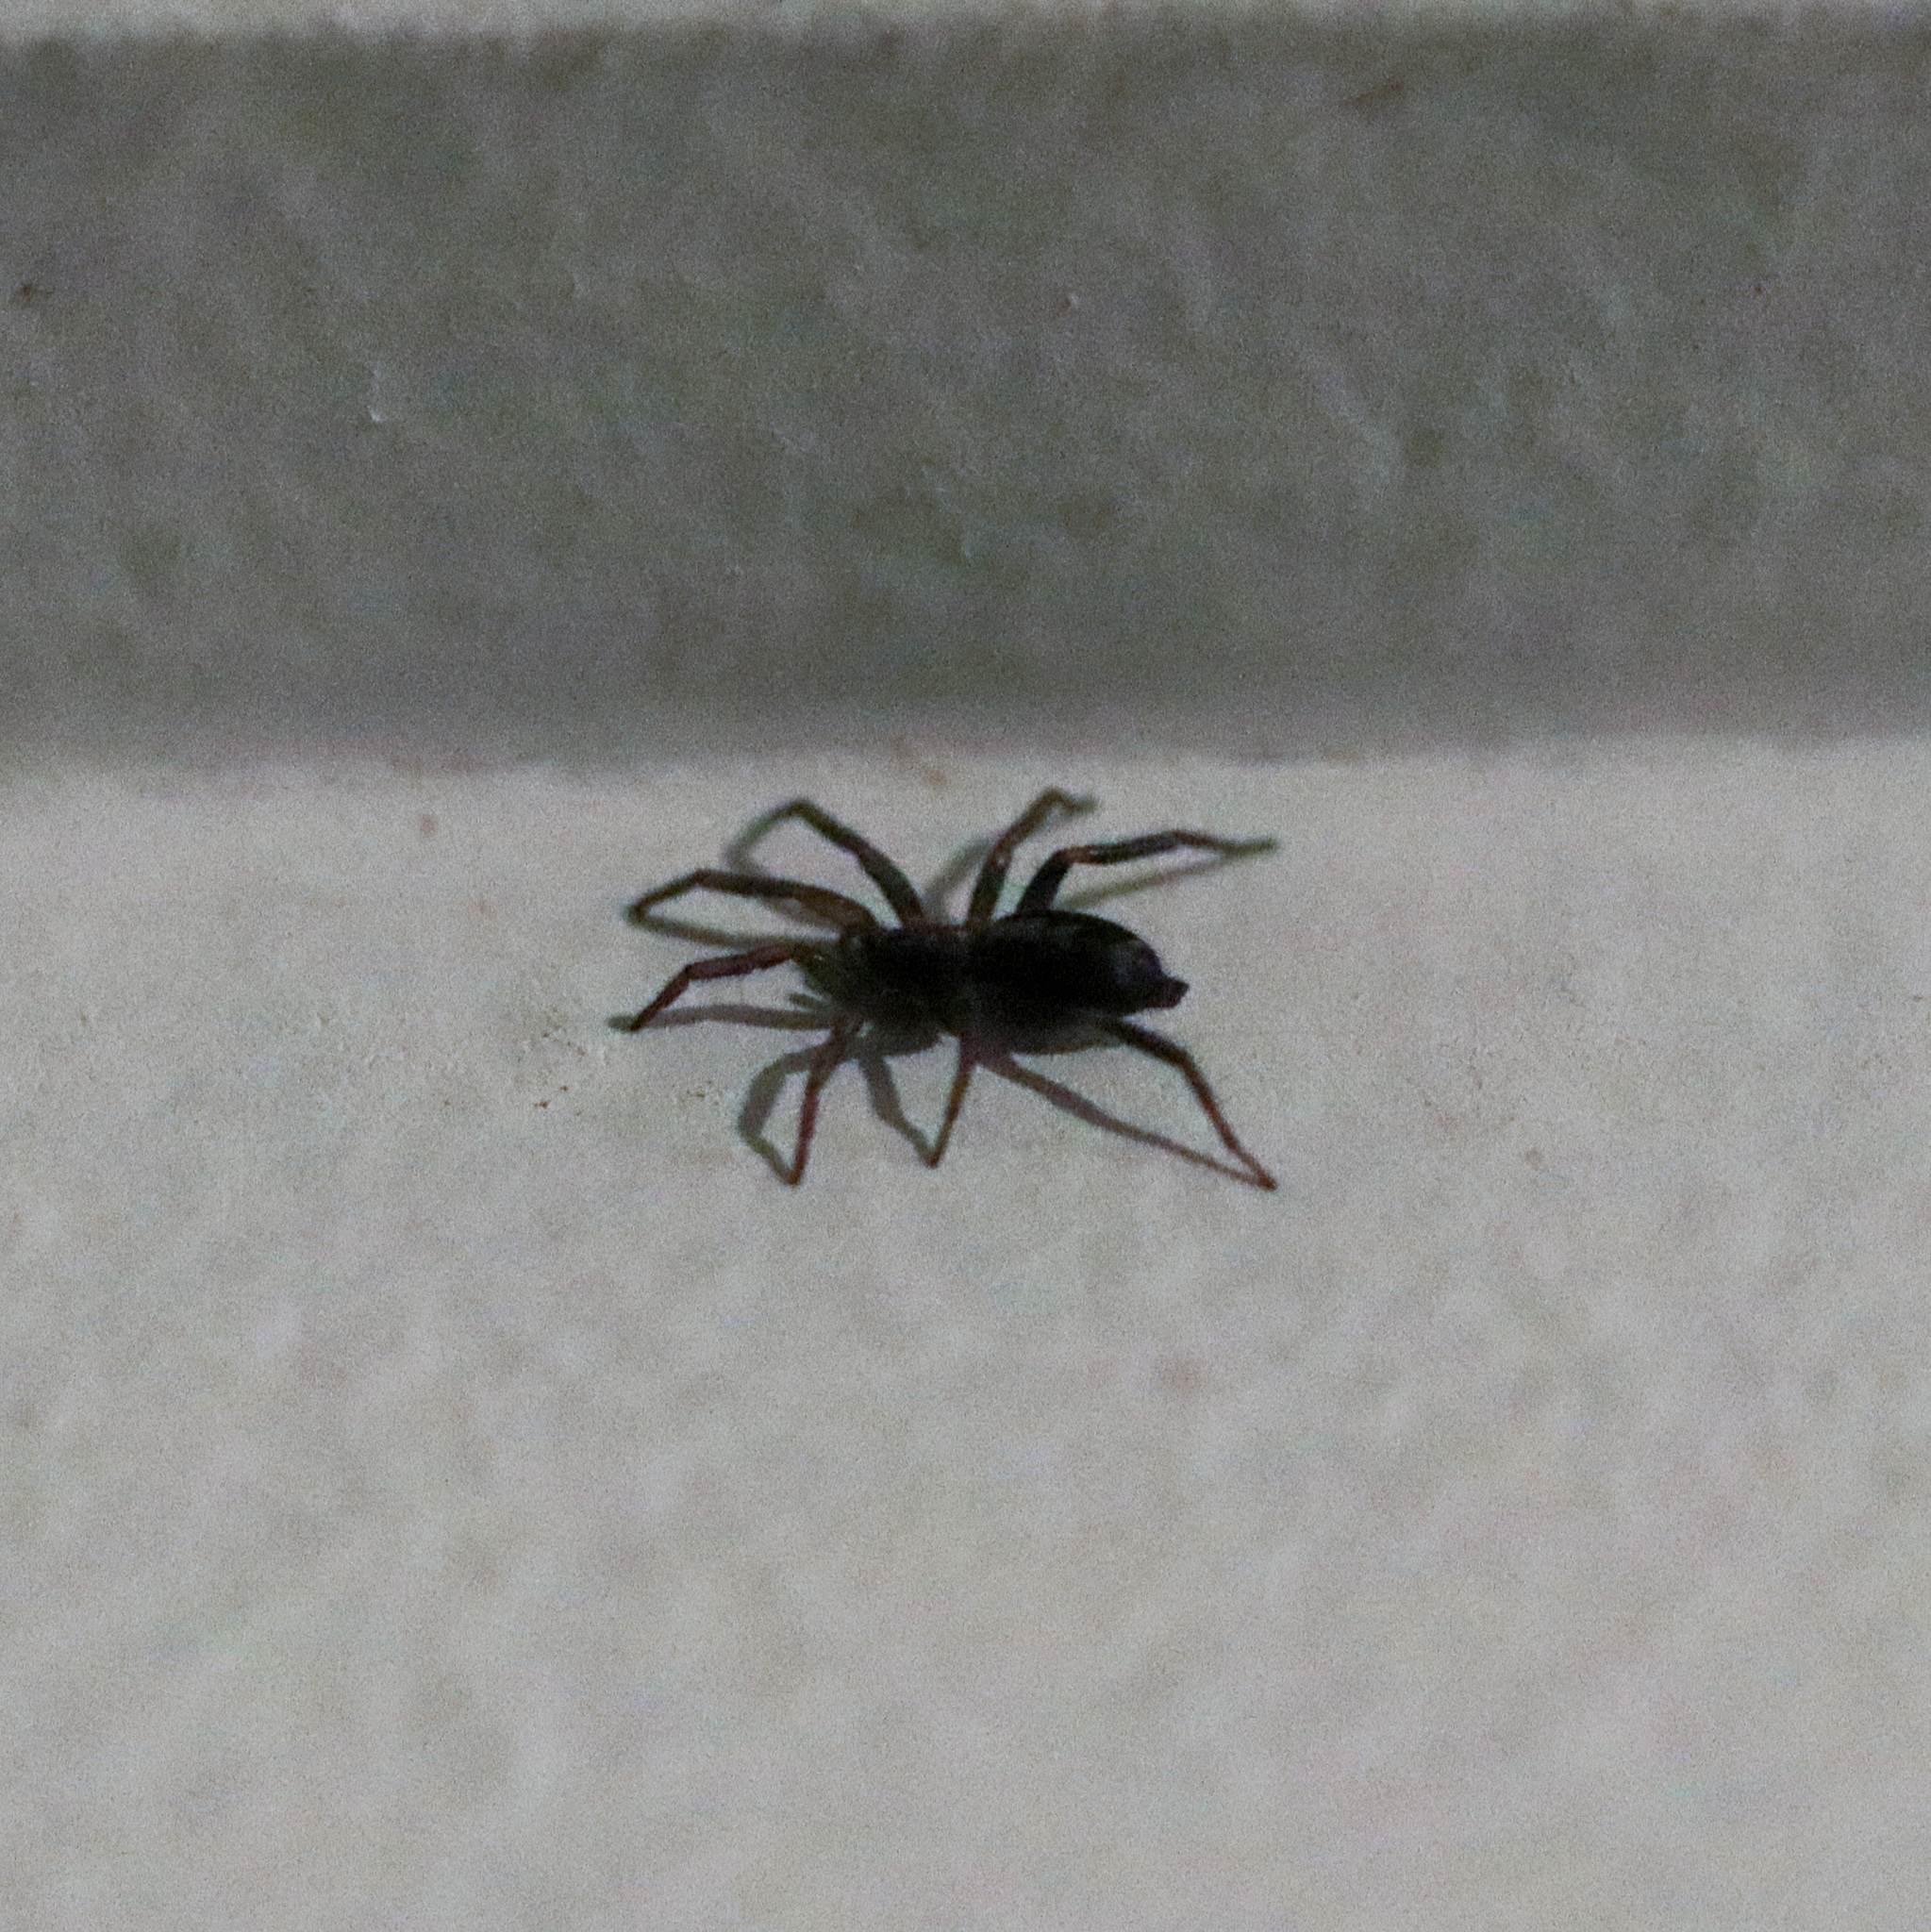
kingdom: Animalia
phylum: Arthropoda
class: Arachnida
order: Araneae
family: Gnaphosidae
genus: Herpyllus
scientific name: Herpyllus ecclesiasticus
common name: Eastern parson spider
